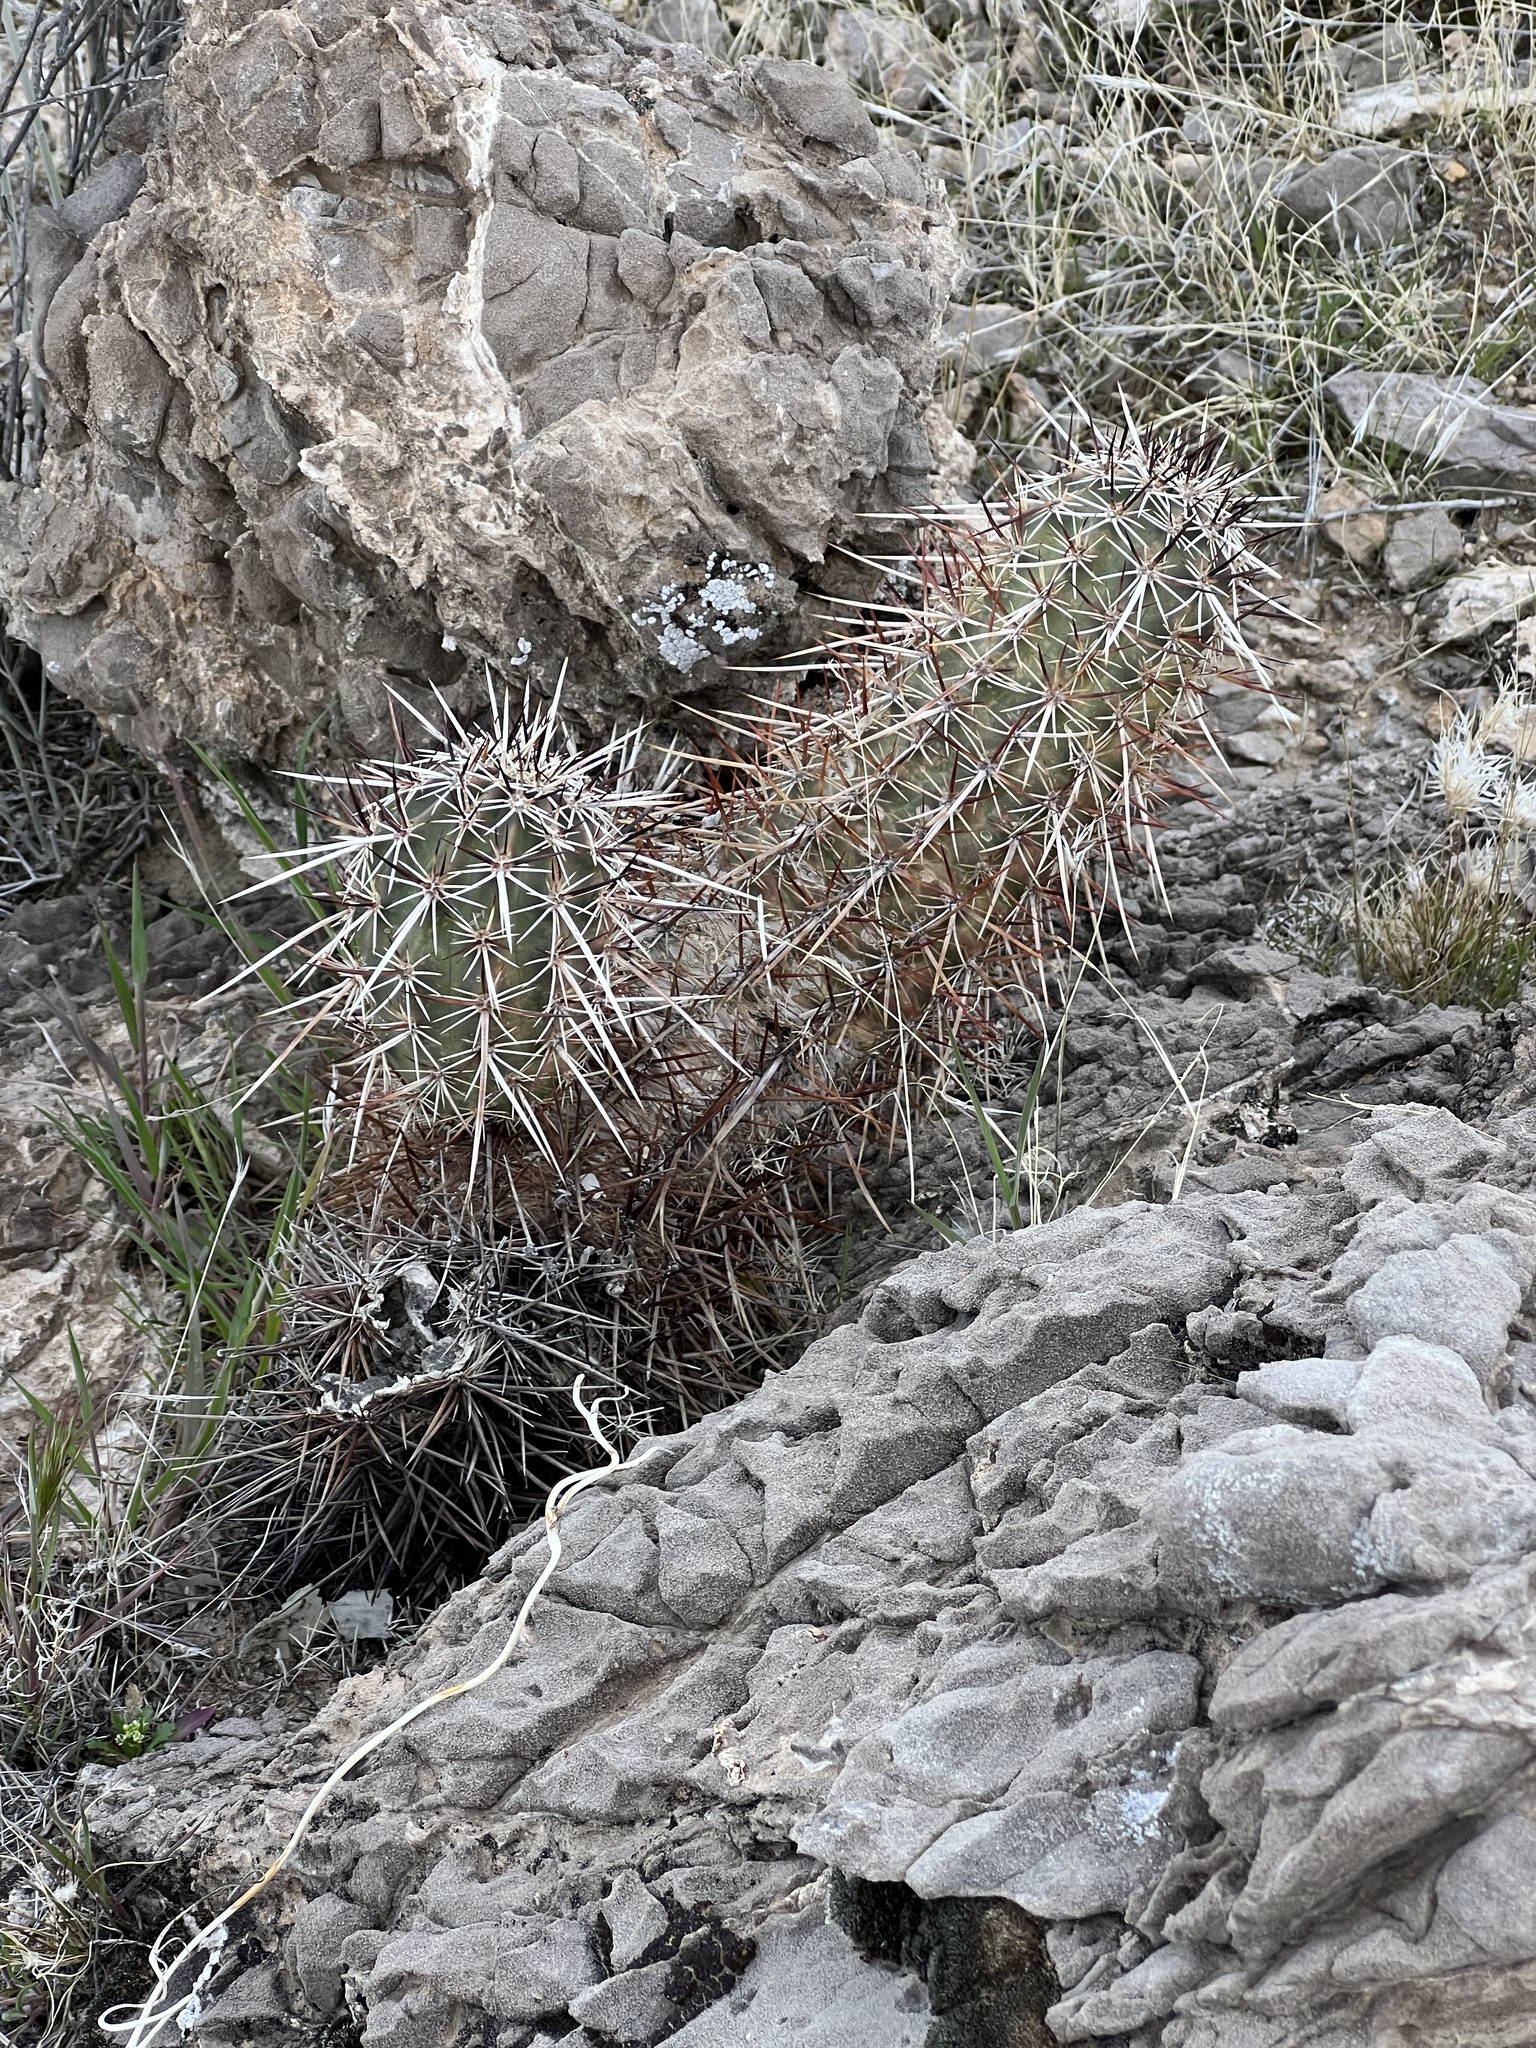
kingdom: Plantae
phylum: Tracheophyta
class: Magnoliopsida
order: Caryophyllales
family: Cactaceae
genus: Echinocereus
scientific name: Echinocereus engelmannii
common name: Engelmann's hedgehog cactus
